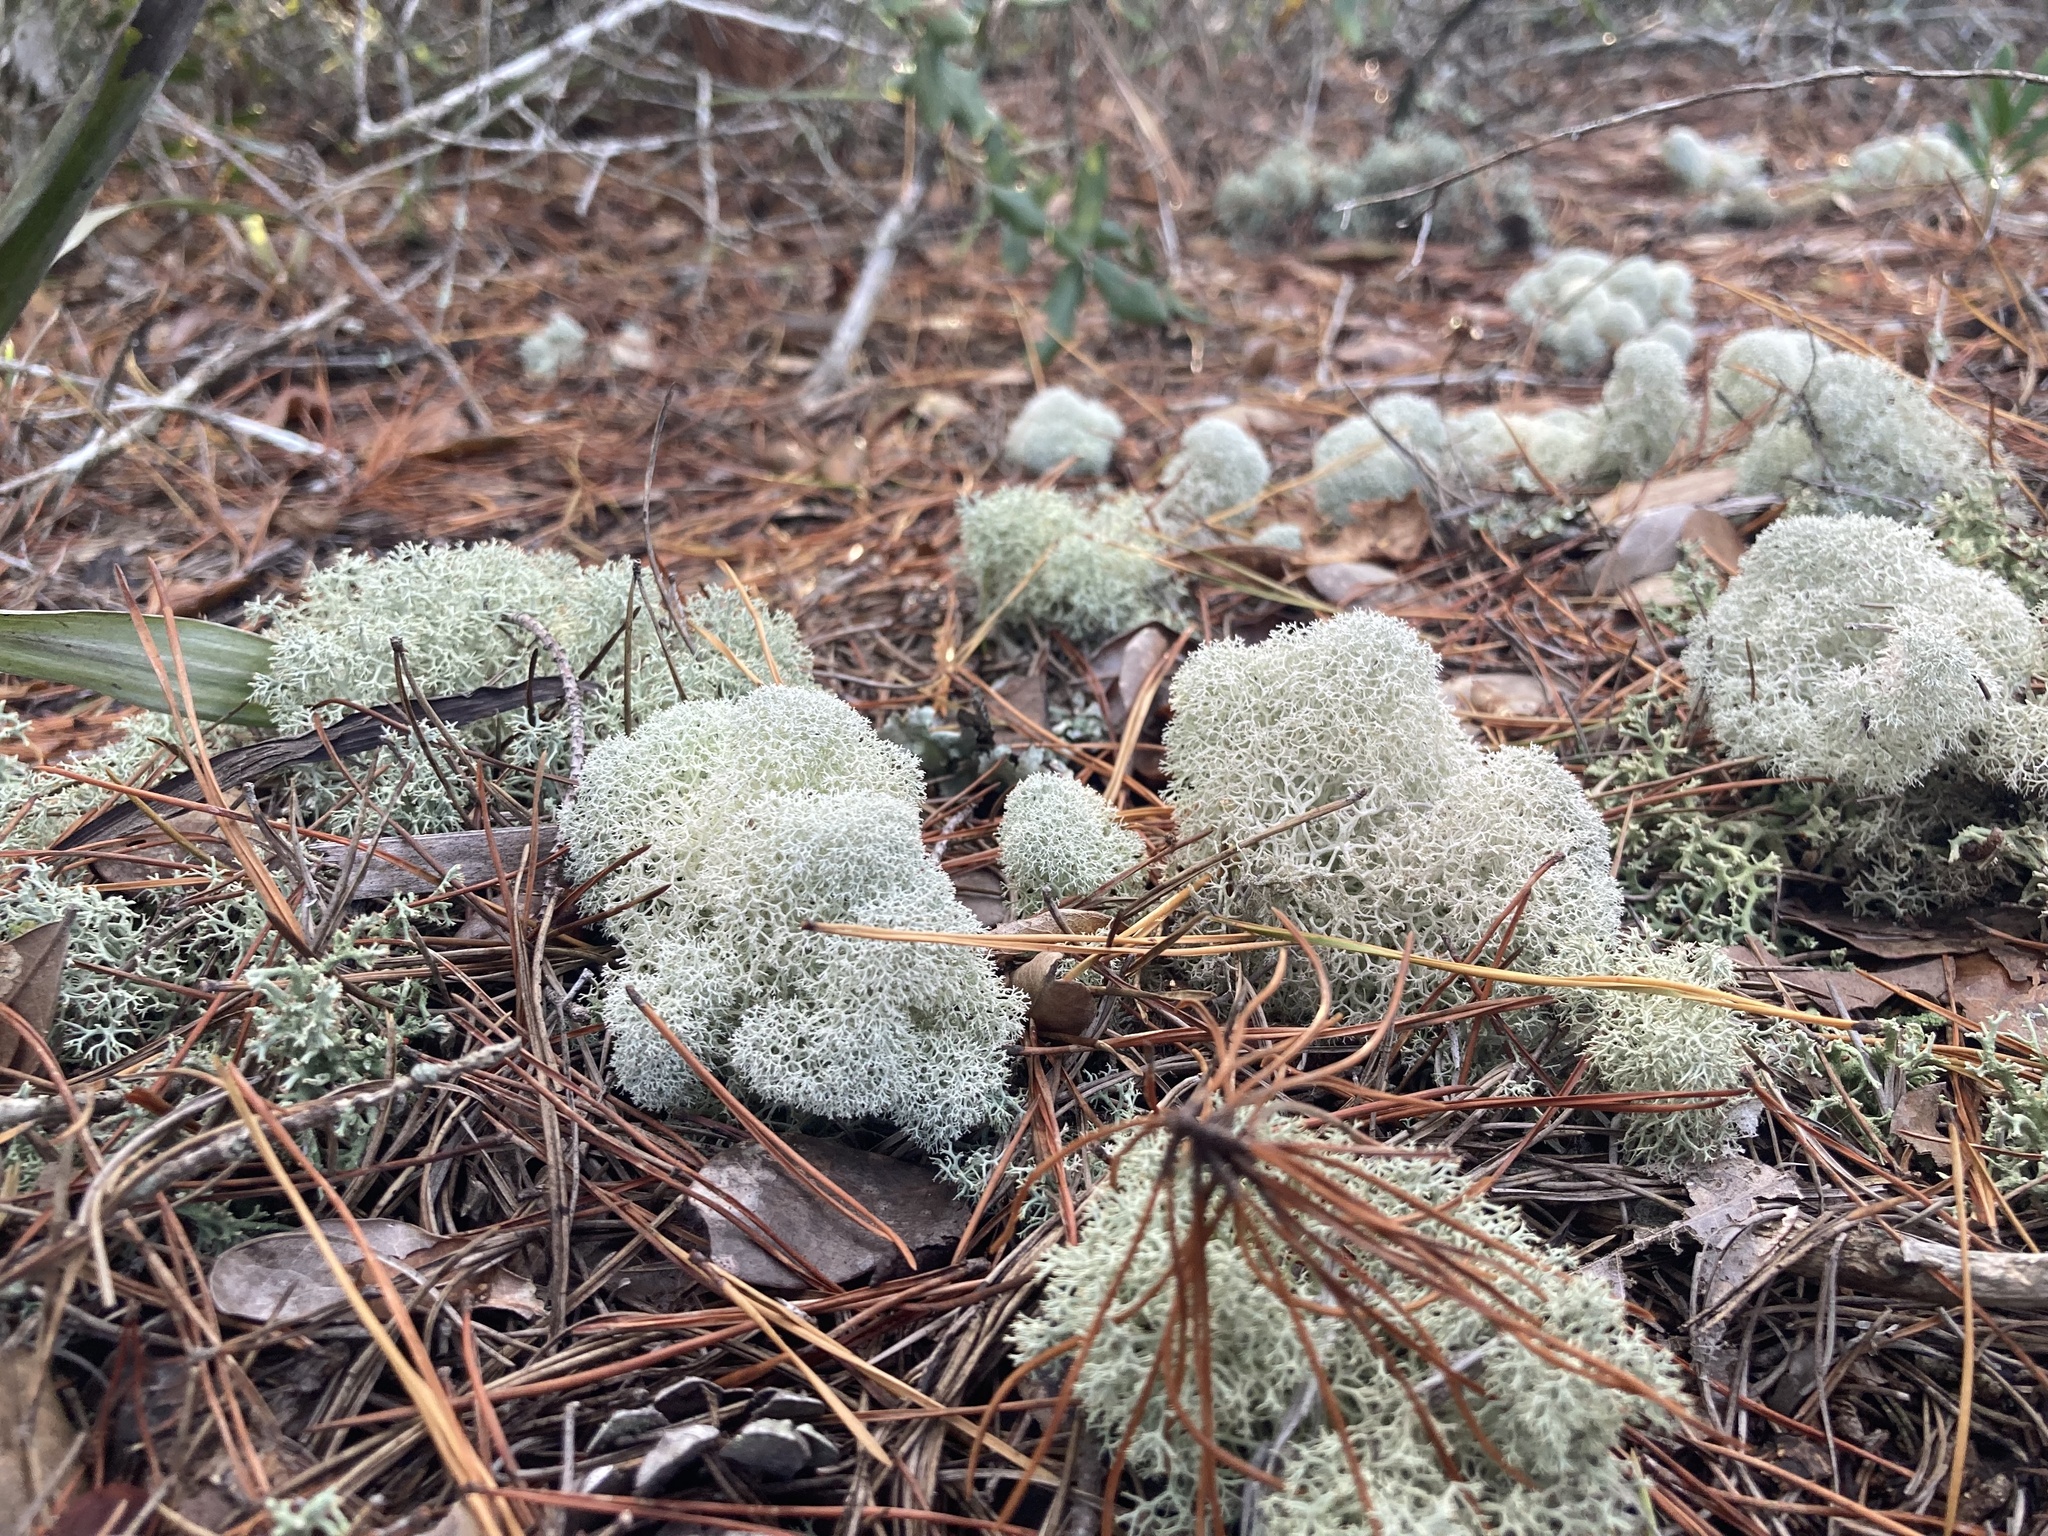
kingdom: Fungi
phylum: Ascomycota
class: Lecanoromycetes
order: Lecanorales
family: Cladoniaceae
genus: Cladonia
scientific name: Cladonia evansii
